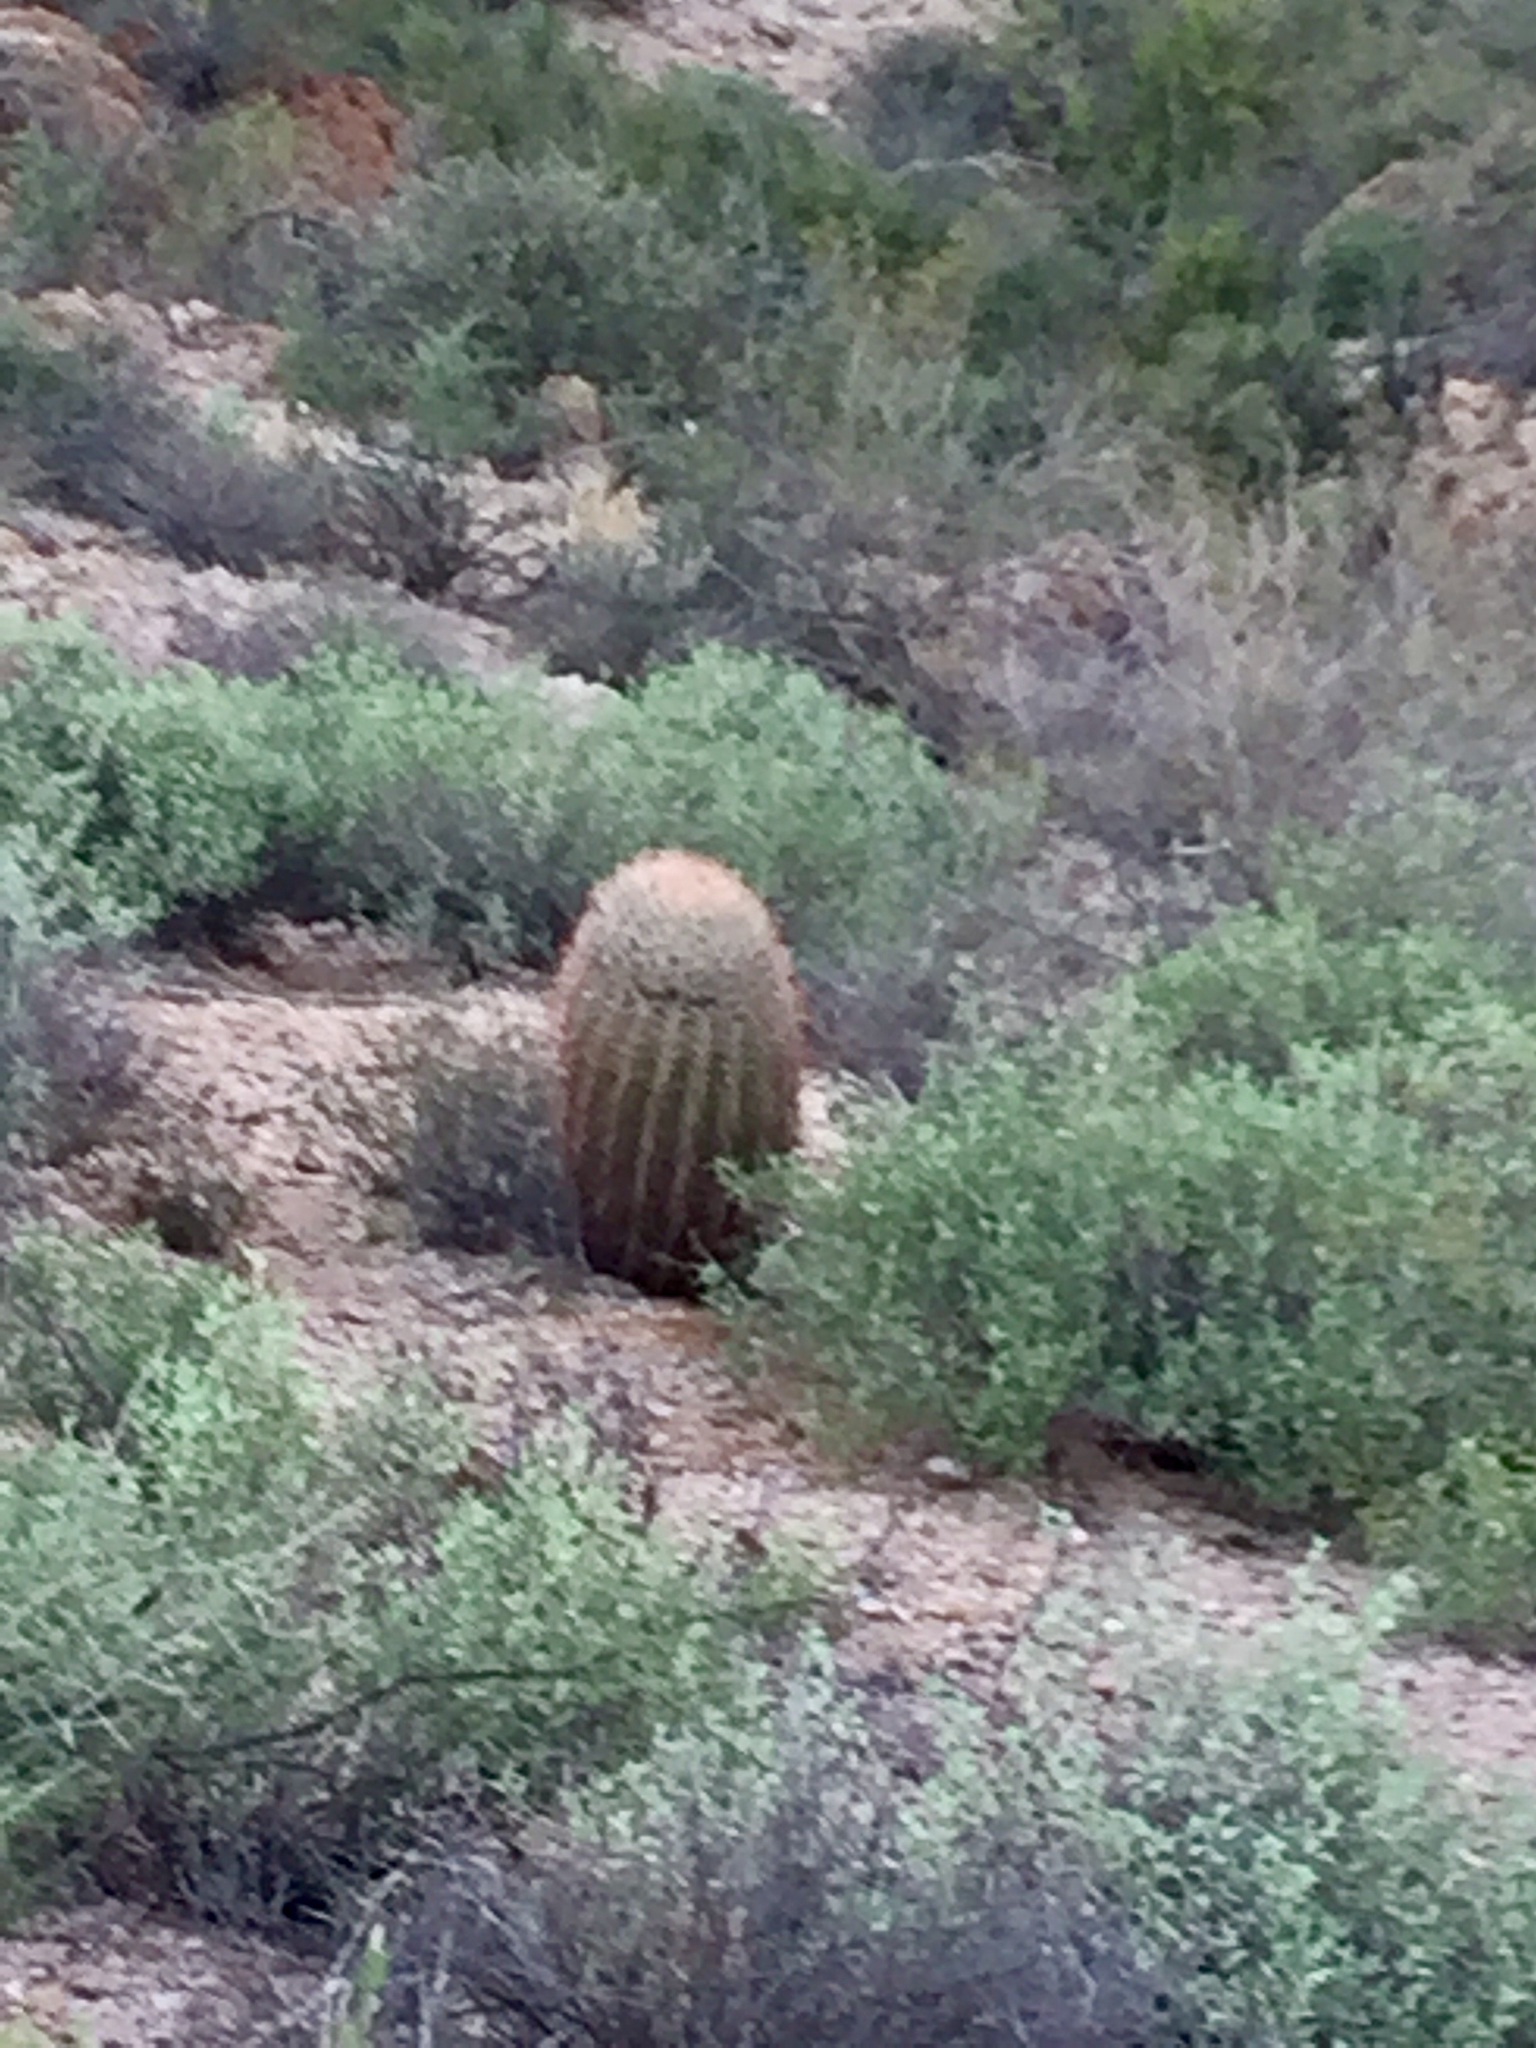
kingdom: Plantae
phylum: Tracheophyta
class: Magnoliopsida
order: Caryophyllales
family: Cactaceae
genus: Ferocactus
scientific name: Ferocactus wislizeni
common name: Candy barrel cactus
